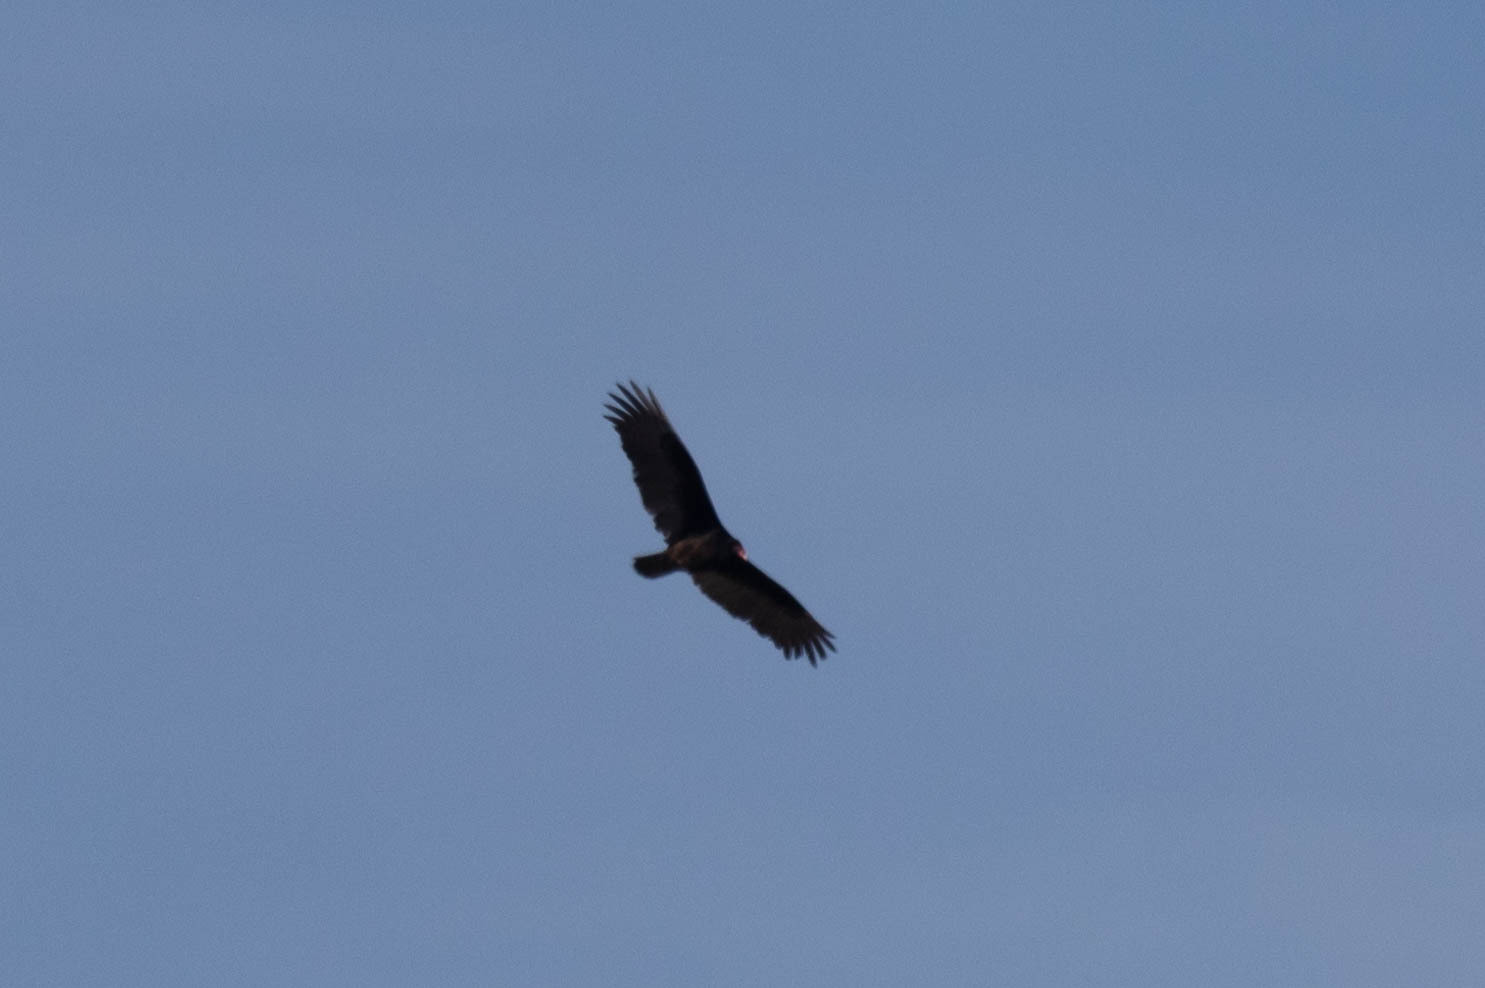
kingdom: Animalia
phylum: Chordata
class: Aves
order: Accipitriformes
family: Cathartidae
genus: Cathartes
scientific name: Cathartes aura
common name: Turkey vulture
